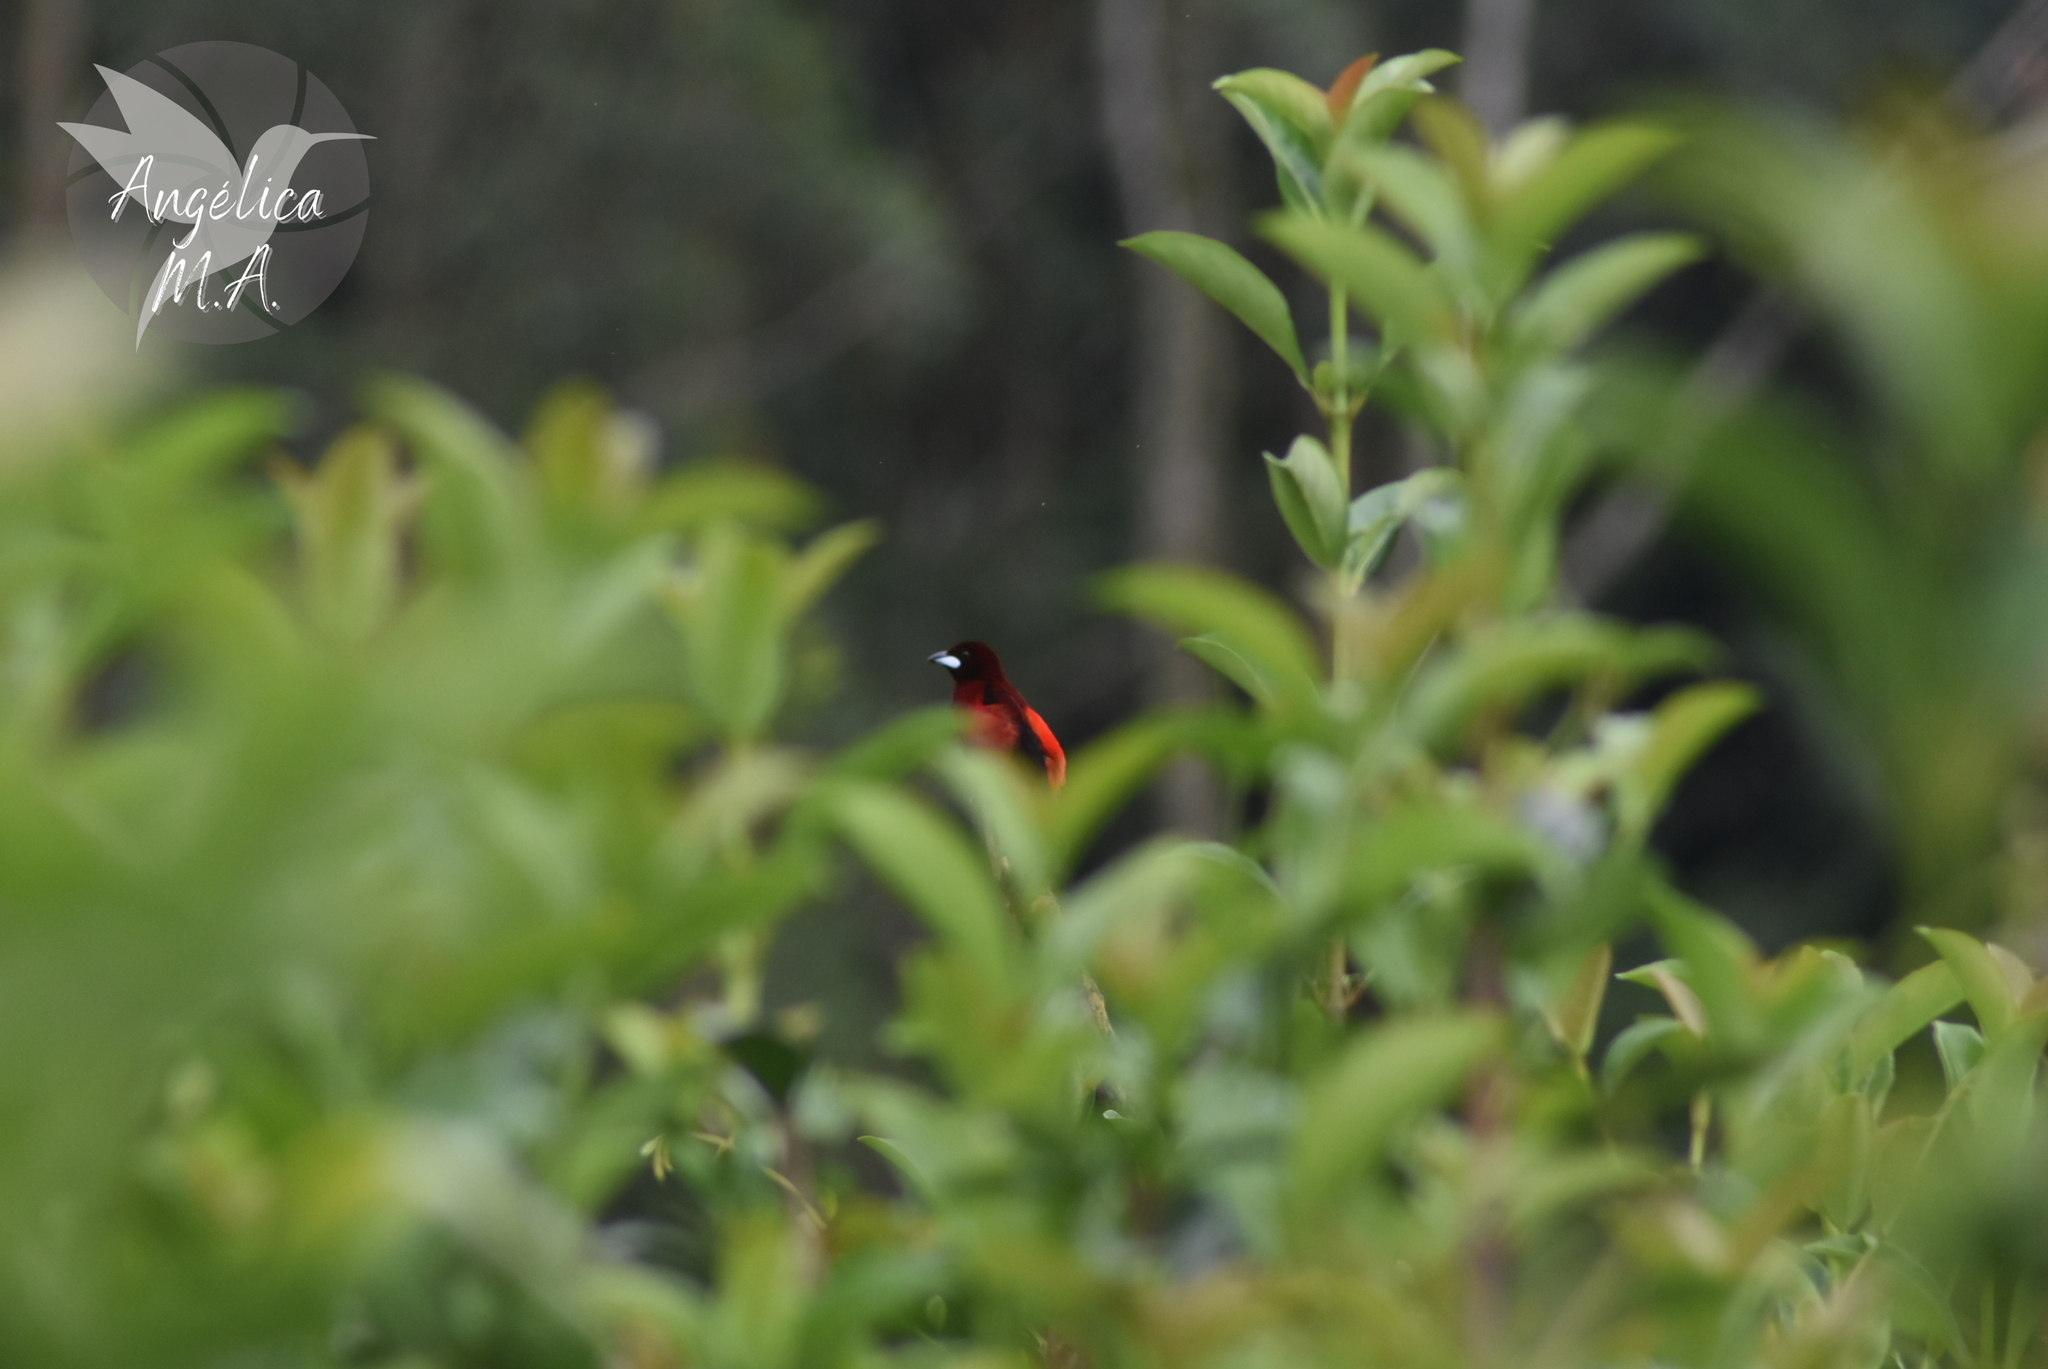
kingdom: Animalia
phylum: Chordata
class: Aves
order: Passeriformes
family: Thraupidae
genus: Ramphocelus
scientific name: Ramphocelus dimidiatus
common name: Crimson-backed tanager
